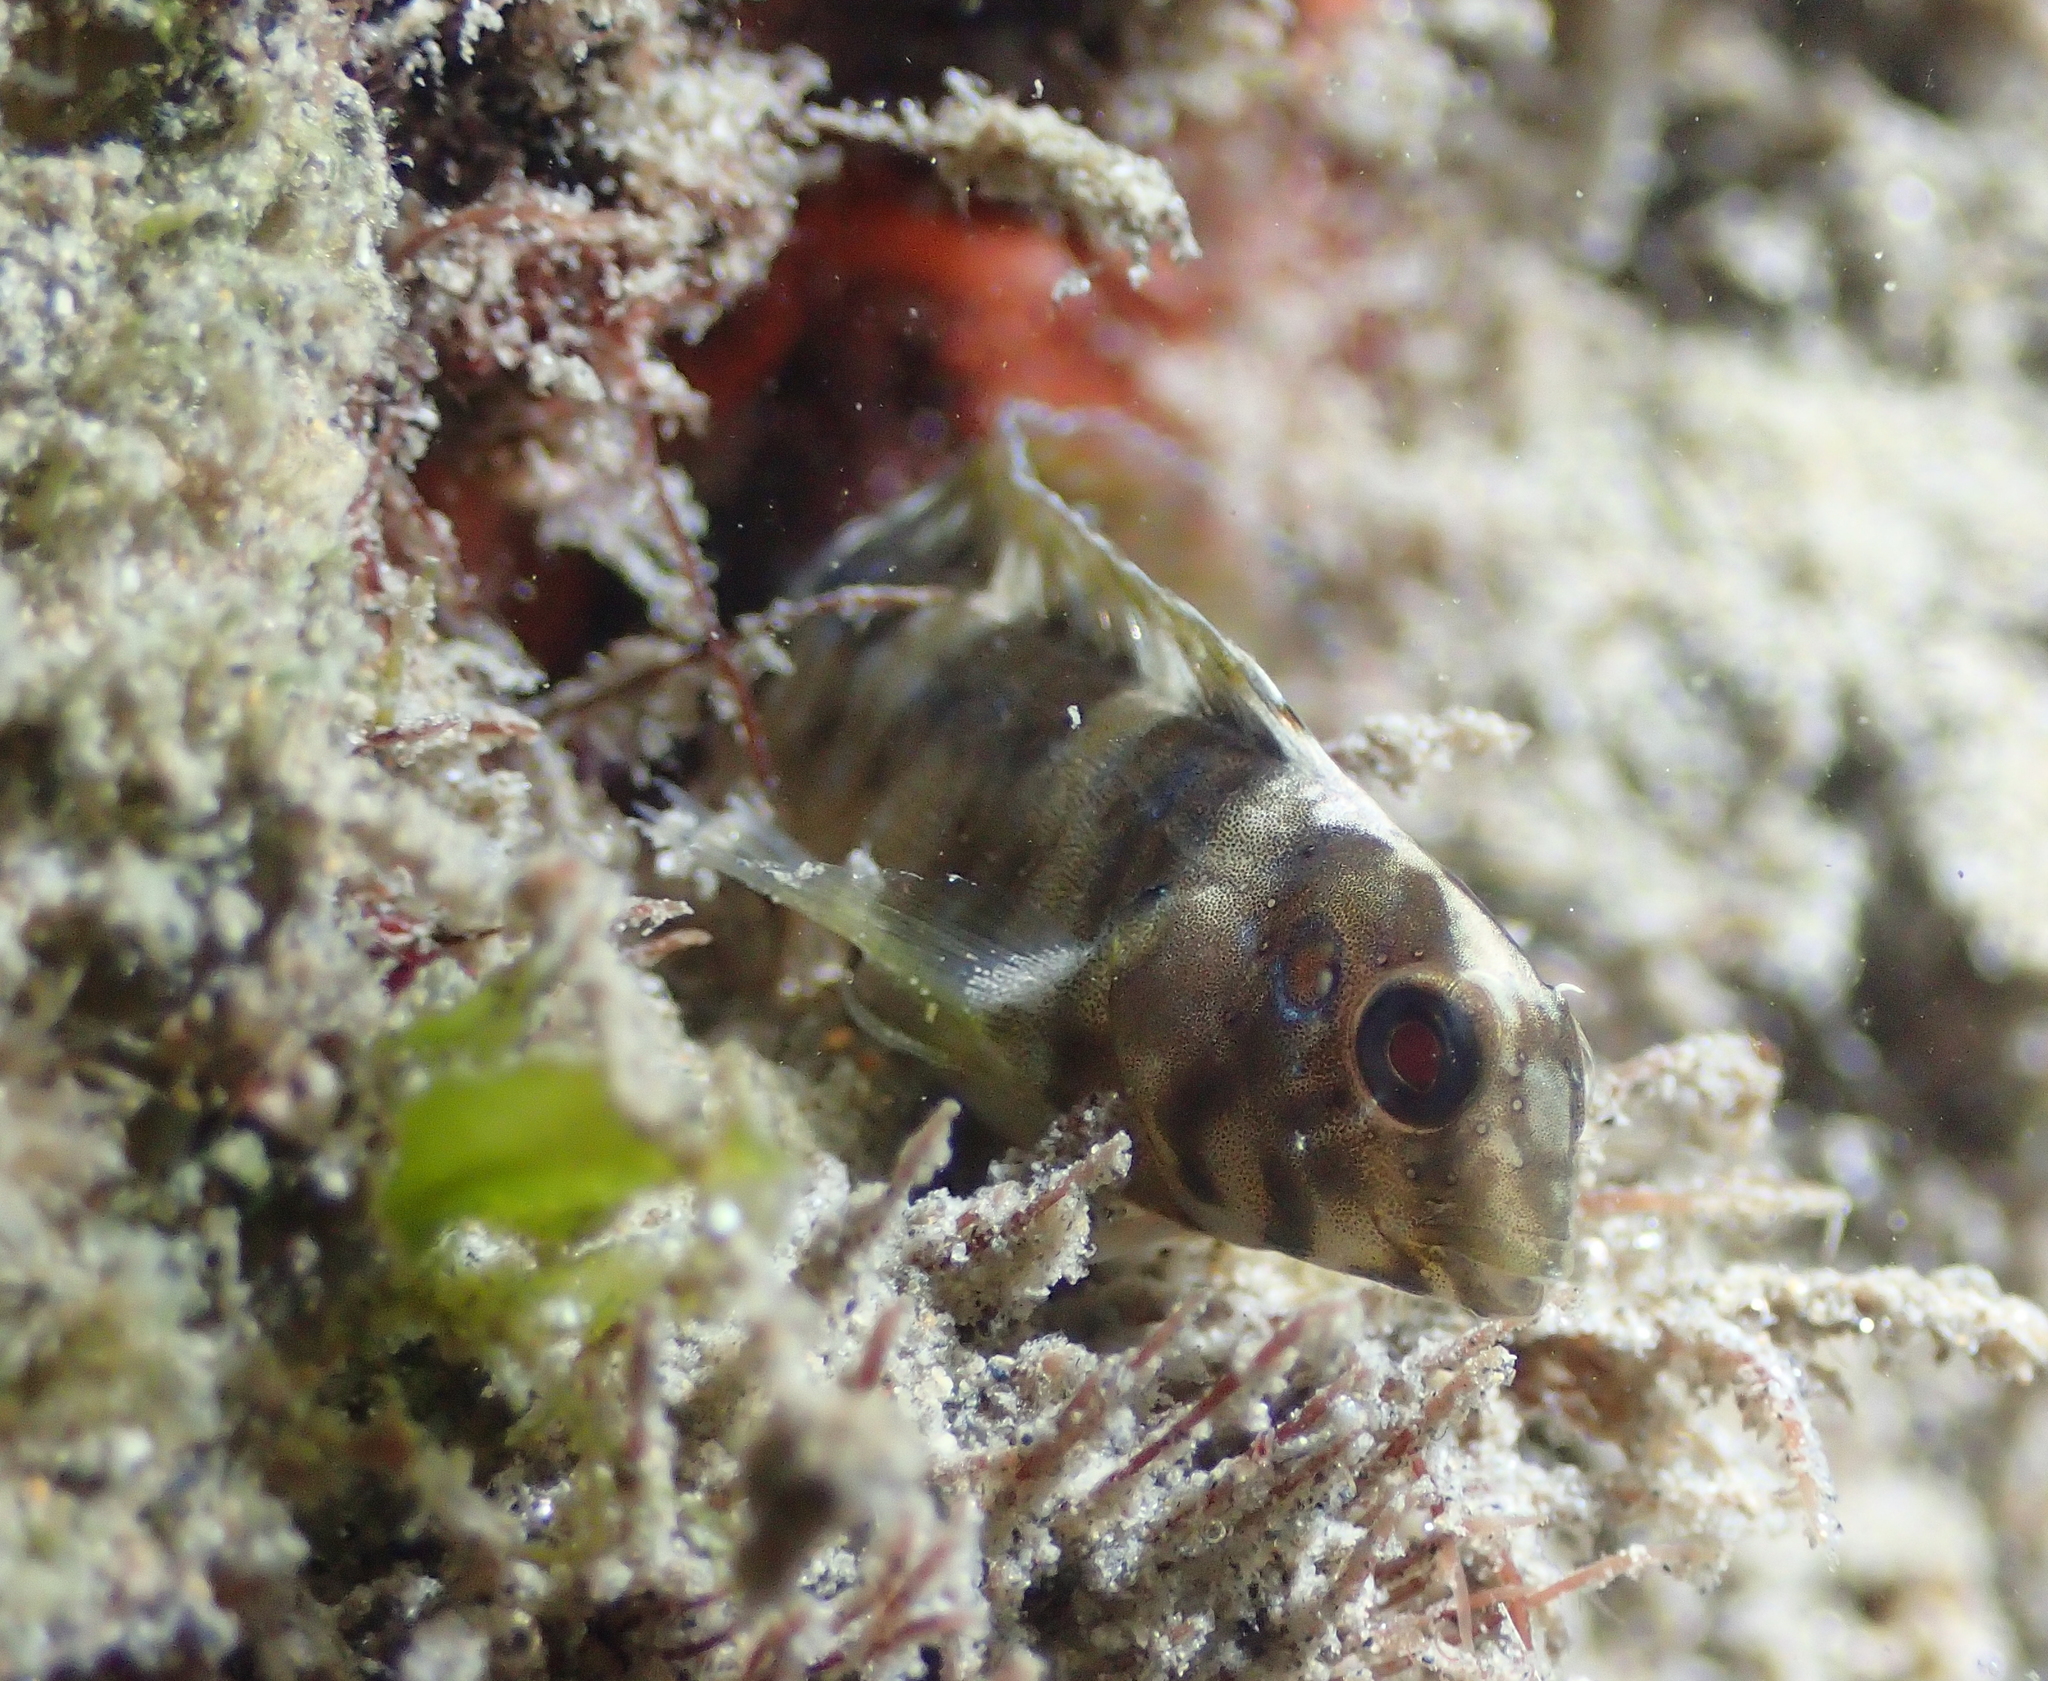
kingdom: Animalia
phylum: Chordata
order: Perciformes
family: Blenniidae
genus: Salaria
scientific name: Salaria pavo
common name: Peacock blenny
